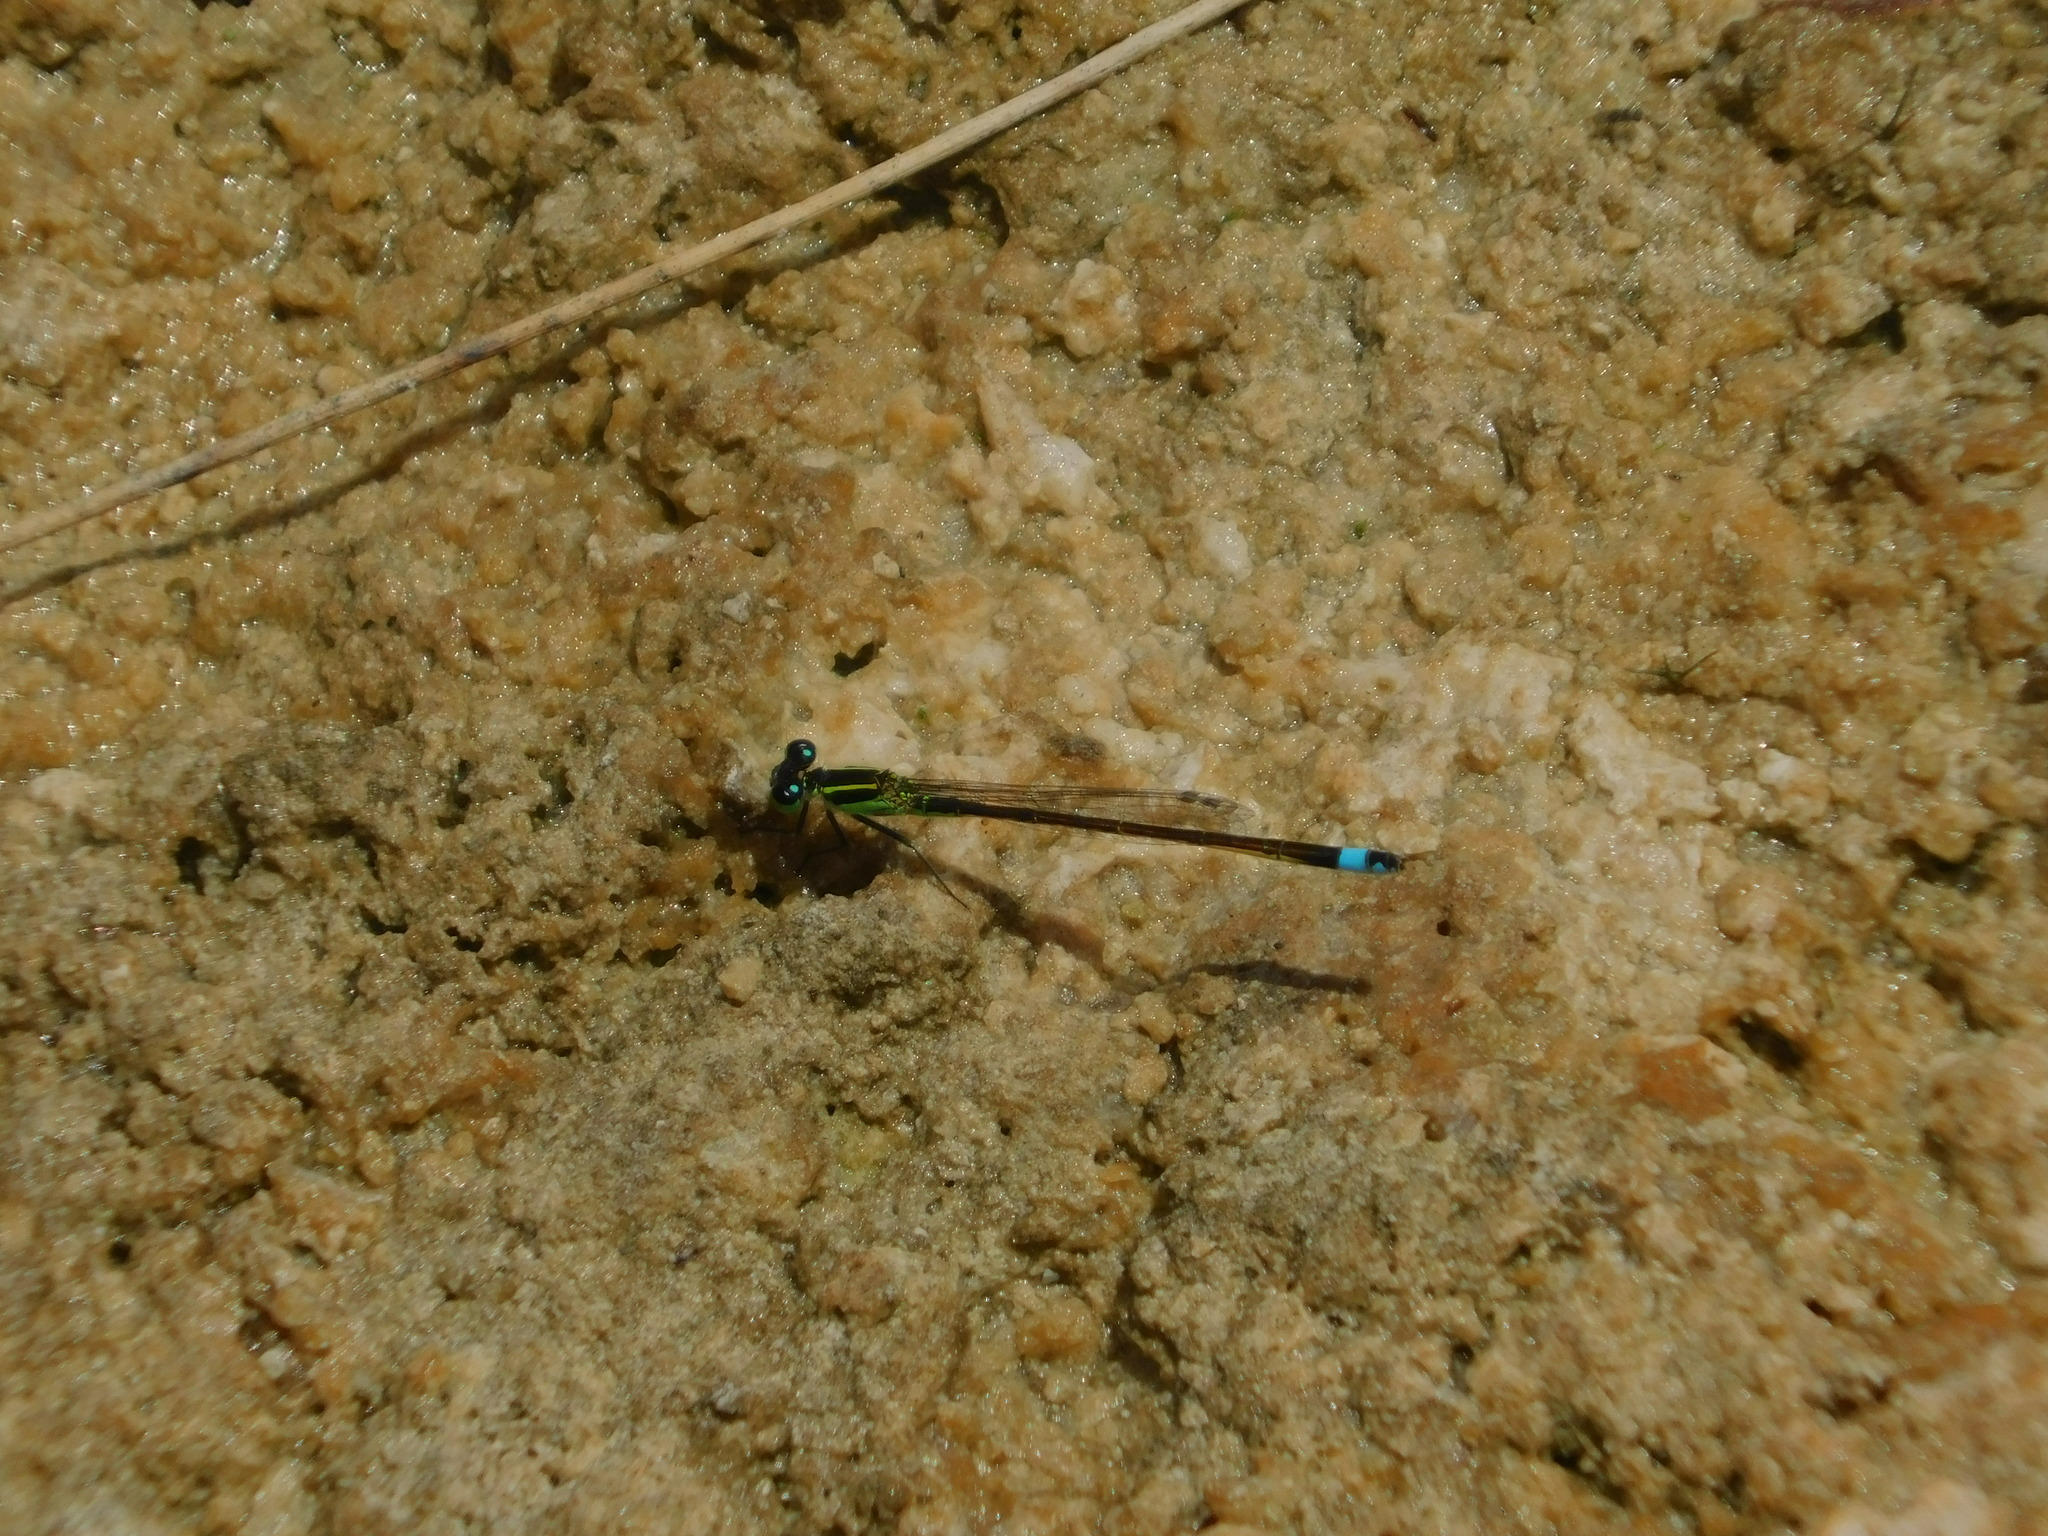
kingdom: Animalia
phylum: Arthropoda
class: Insecta
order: Odonata
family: Coenagrionidae
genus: Ischnura
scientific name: Ischnura ramburii
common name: Rambur's forktail
